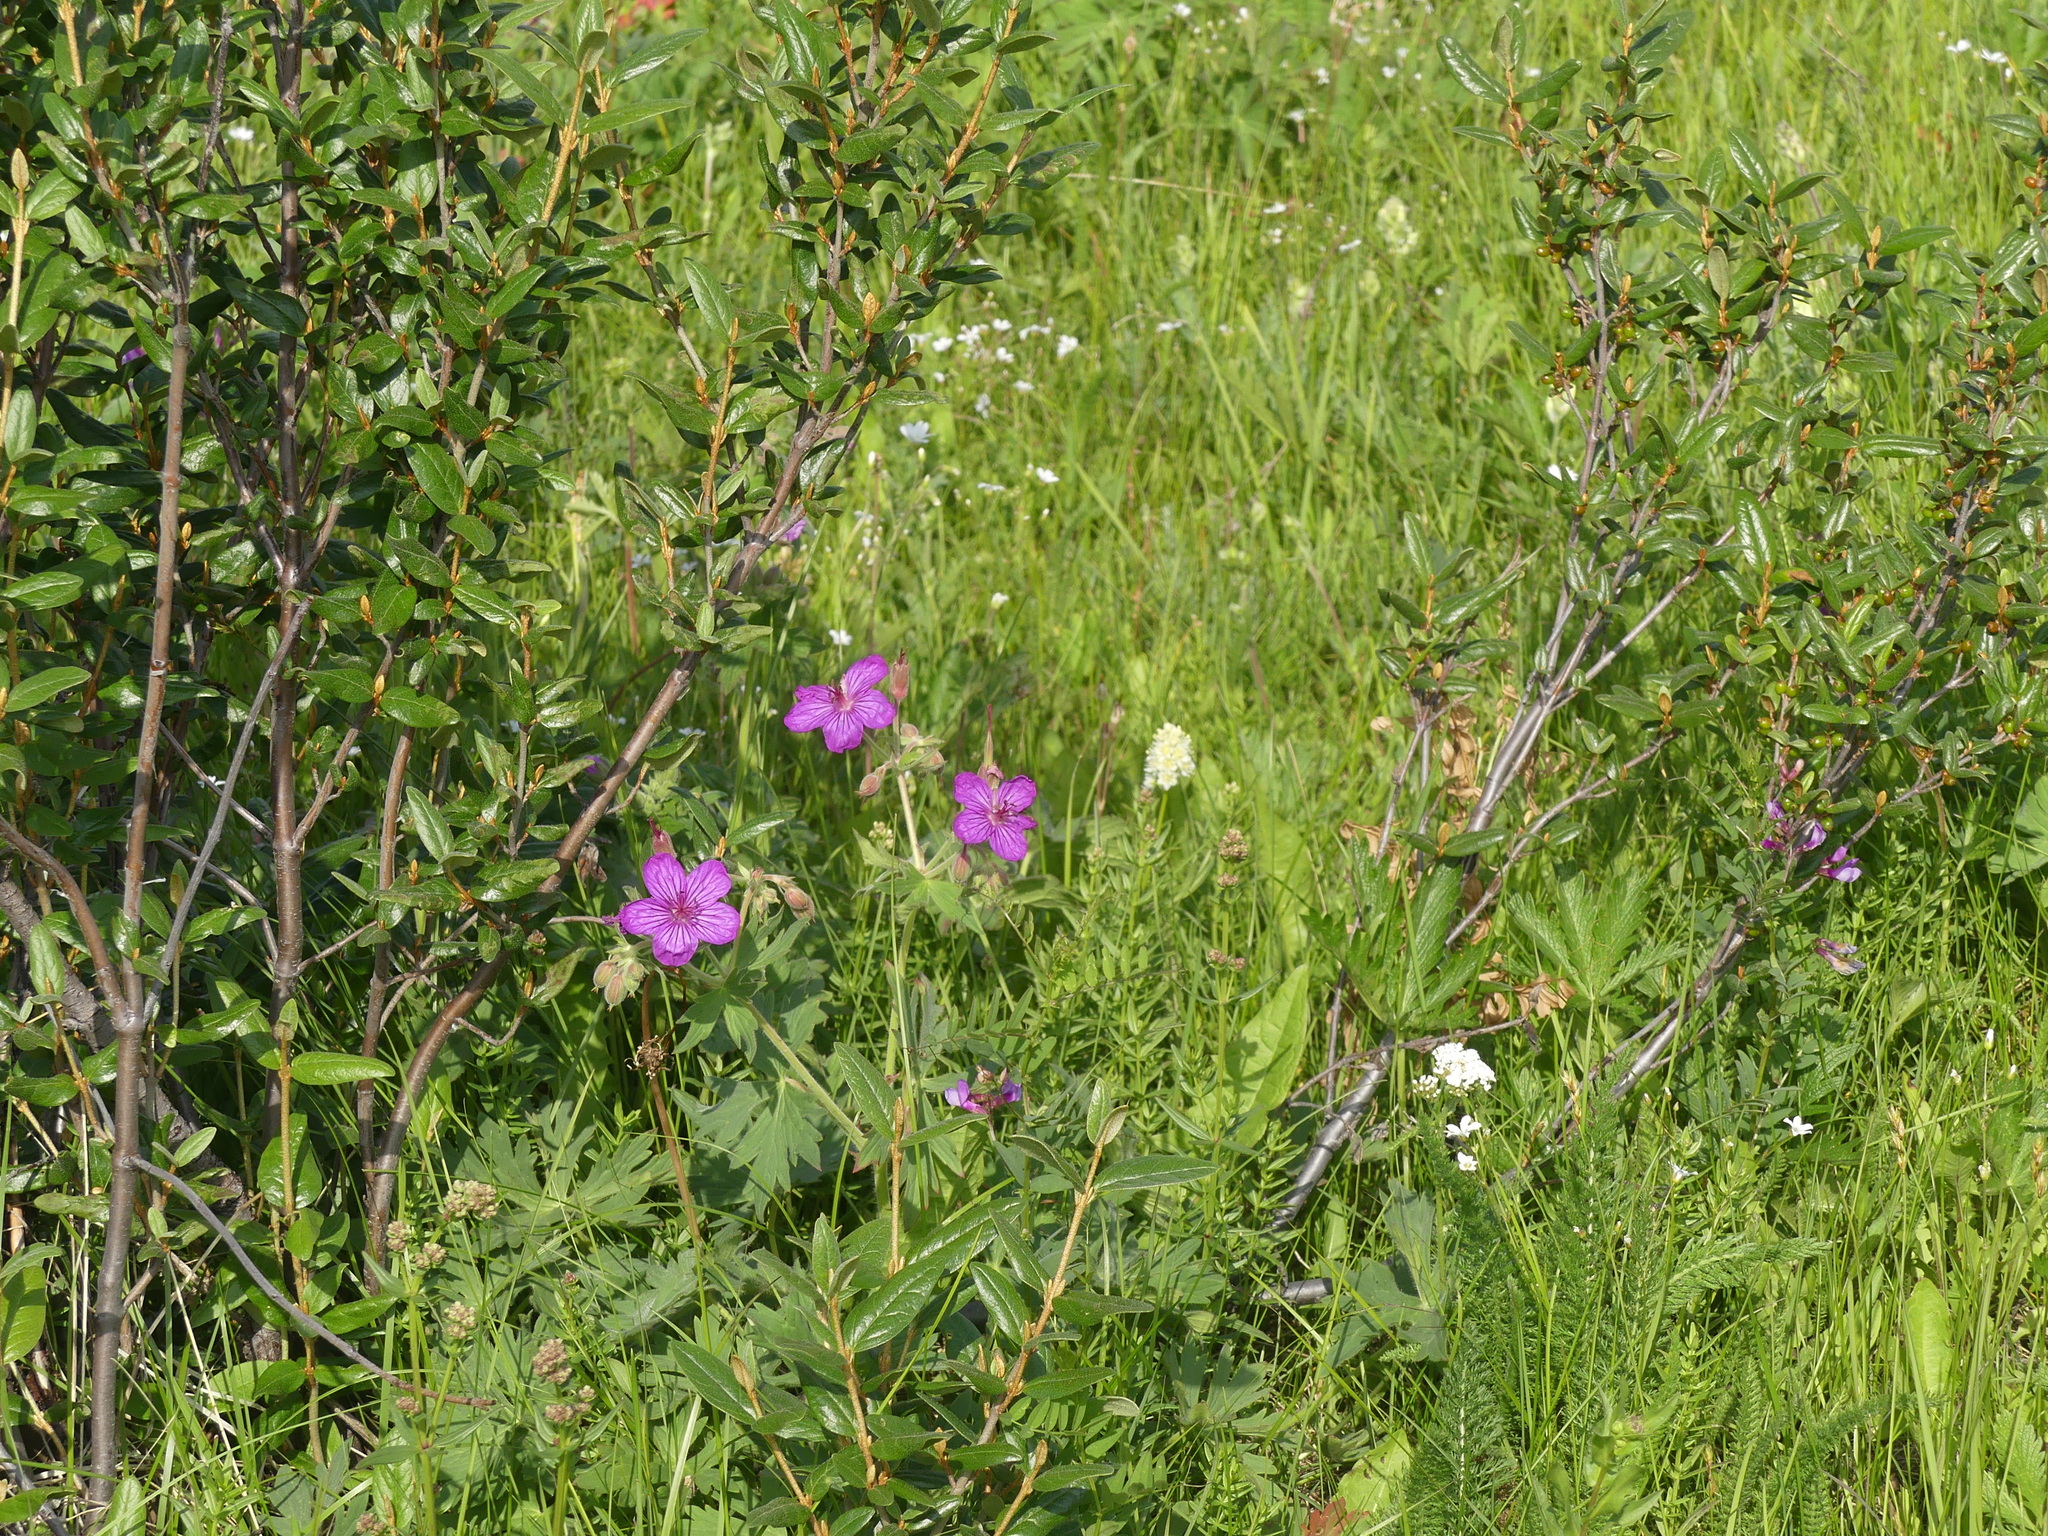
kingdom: Plantae
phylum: Tracheophyta
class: Magnoliopsida
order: Geraniales
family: Geraniaceae
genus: Geranium
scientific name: Geranium viscosissimum
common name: Purple geranium
